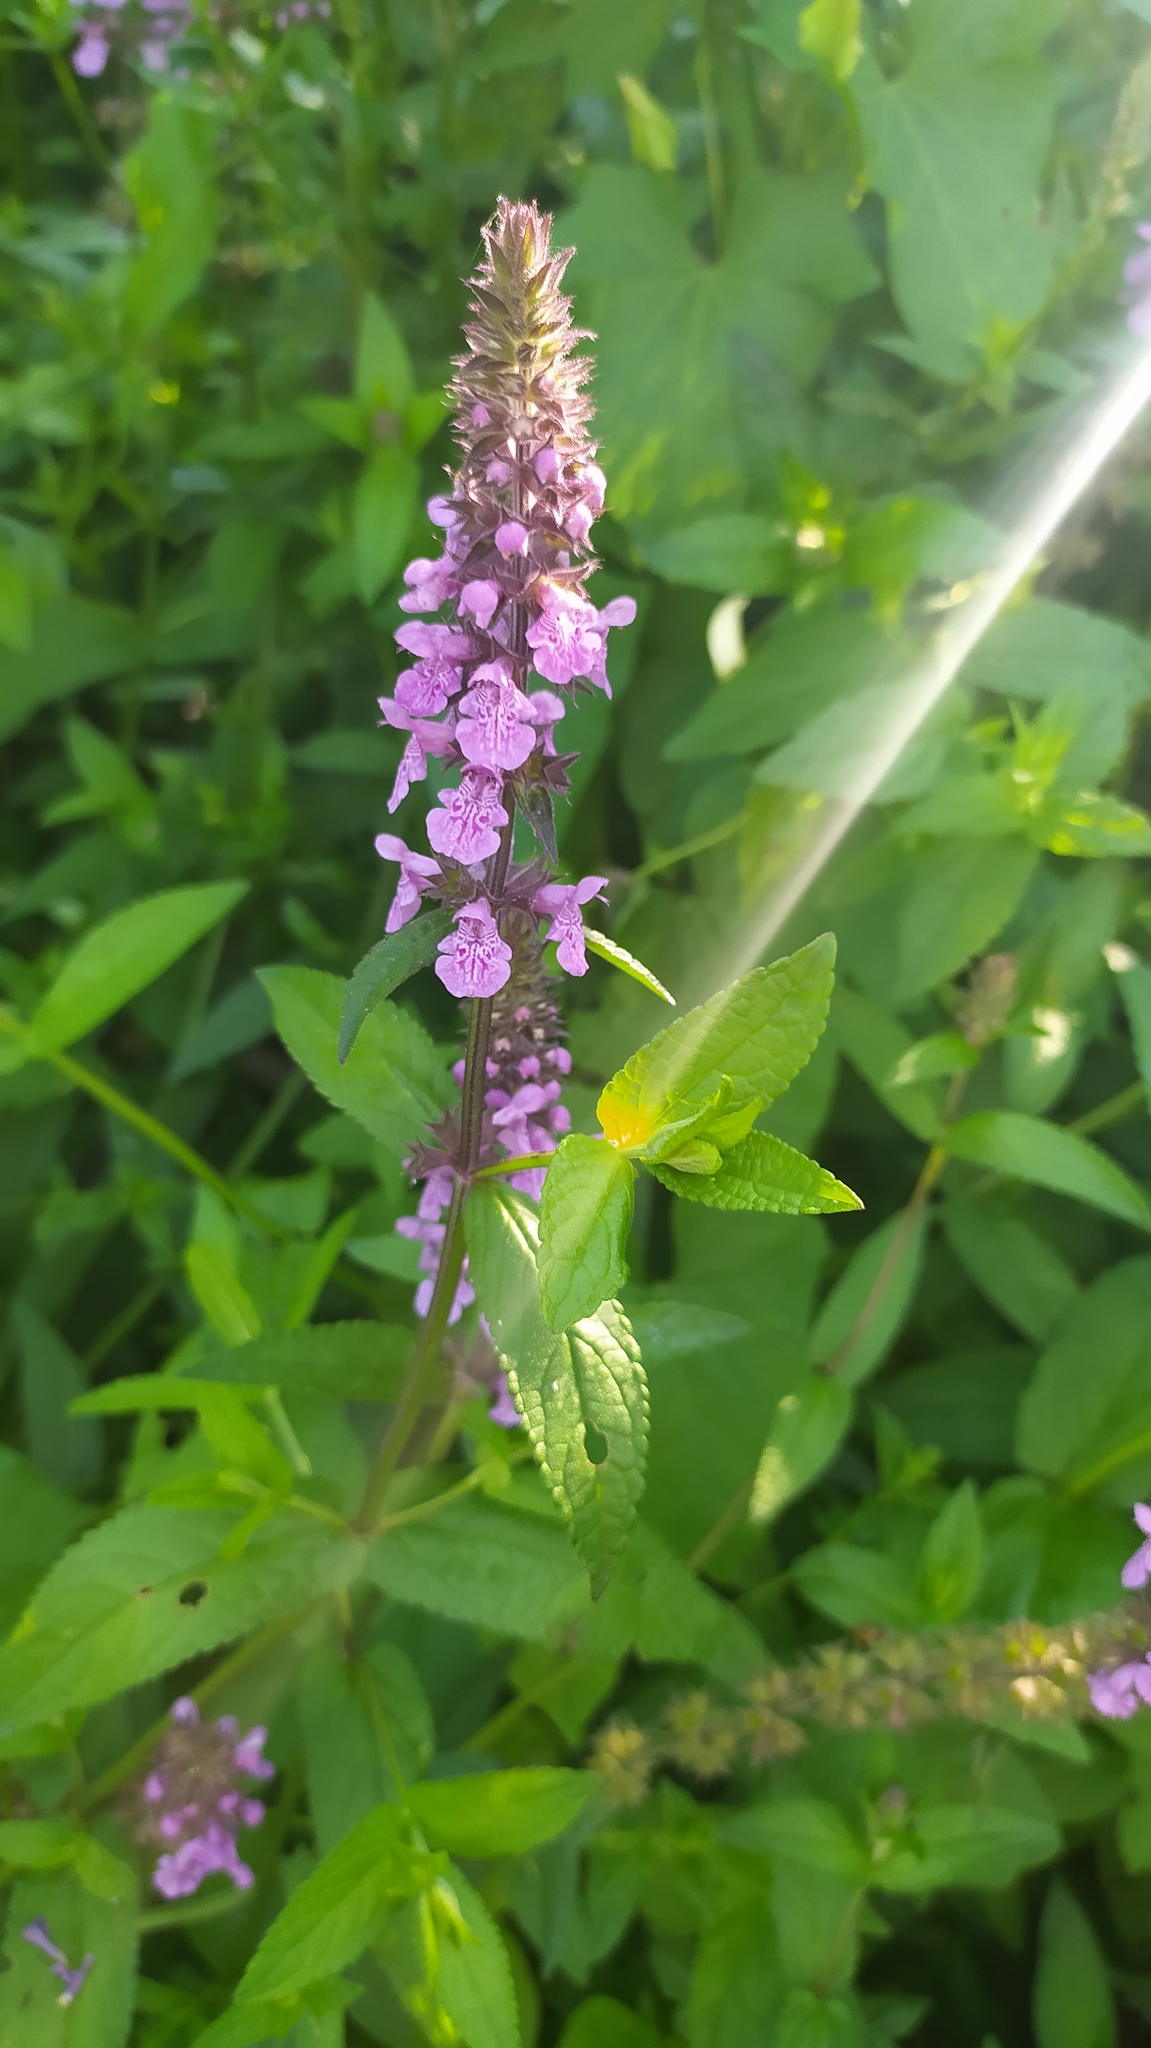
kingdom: Plantae
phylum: Tracheophyta
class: Magnoliopsida
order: Lamiales
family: Lamiaceae
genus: Stachys
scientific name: Stachys palustris
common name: Marsh woundwort
